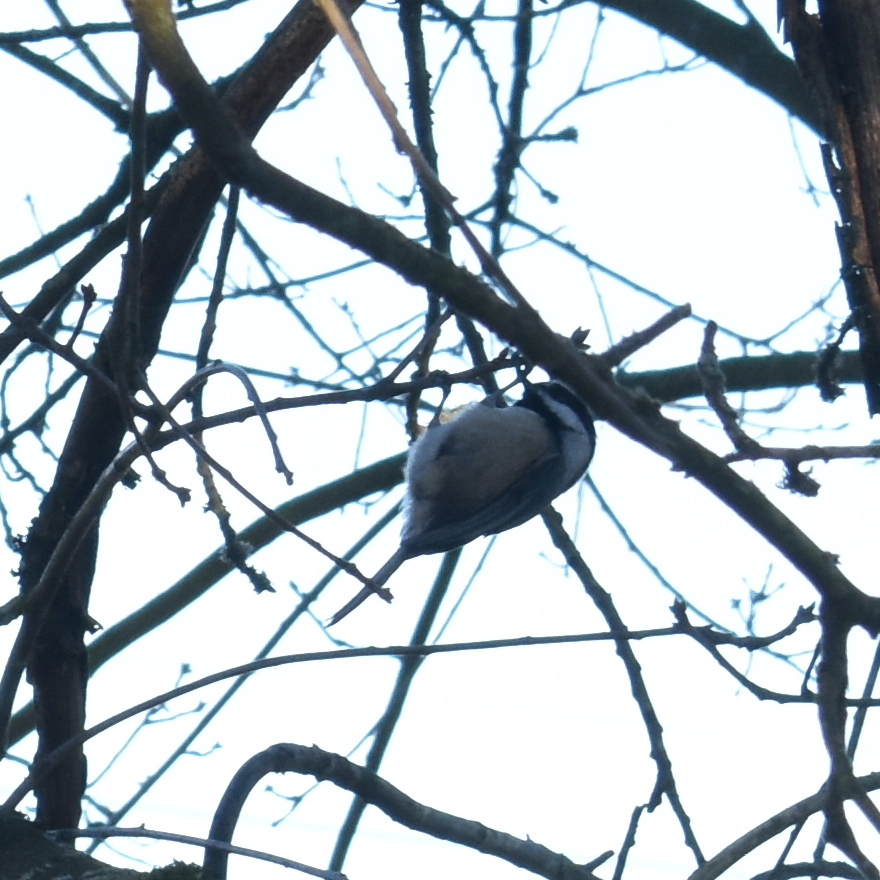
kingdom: Animalia
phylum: Chordata
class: Aves
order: Passeriformes
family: Paridae
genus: Poecile
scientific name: Poecile atricapillus
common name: Black-capped chickadee
